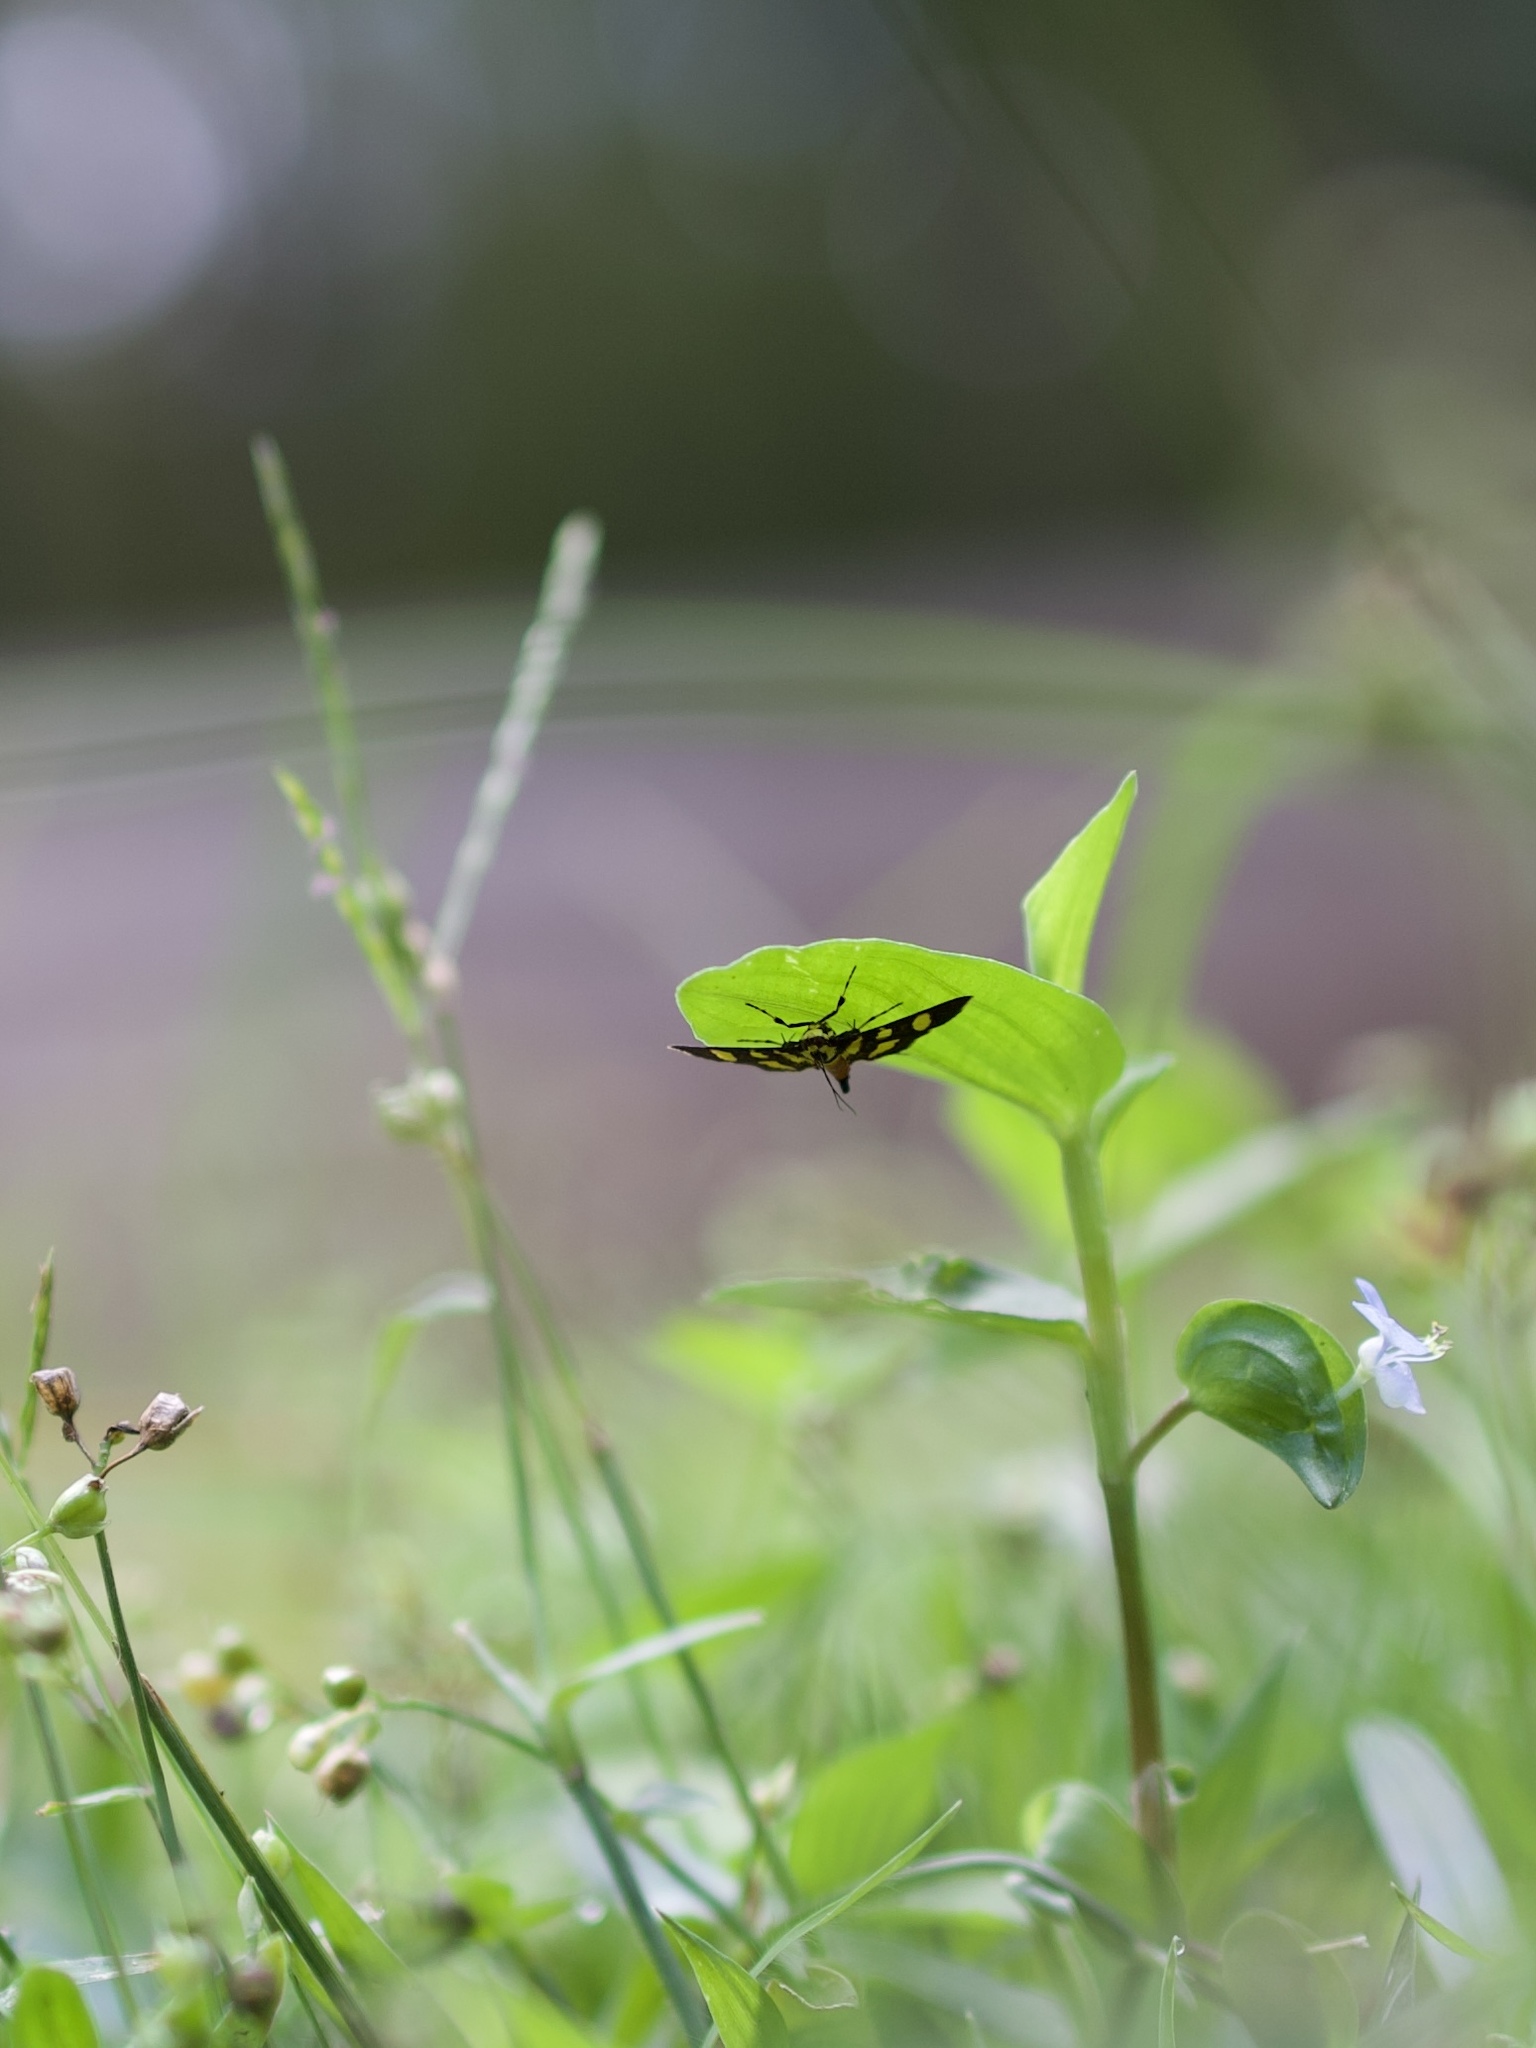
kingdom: Animalia
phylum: Arthropoda
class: Insecta
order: Lepidoptera
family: Crambidae
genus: Syngamia
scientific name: Syngamia florella
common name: Orange-spotted flower moth
